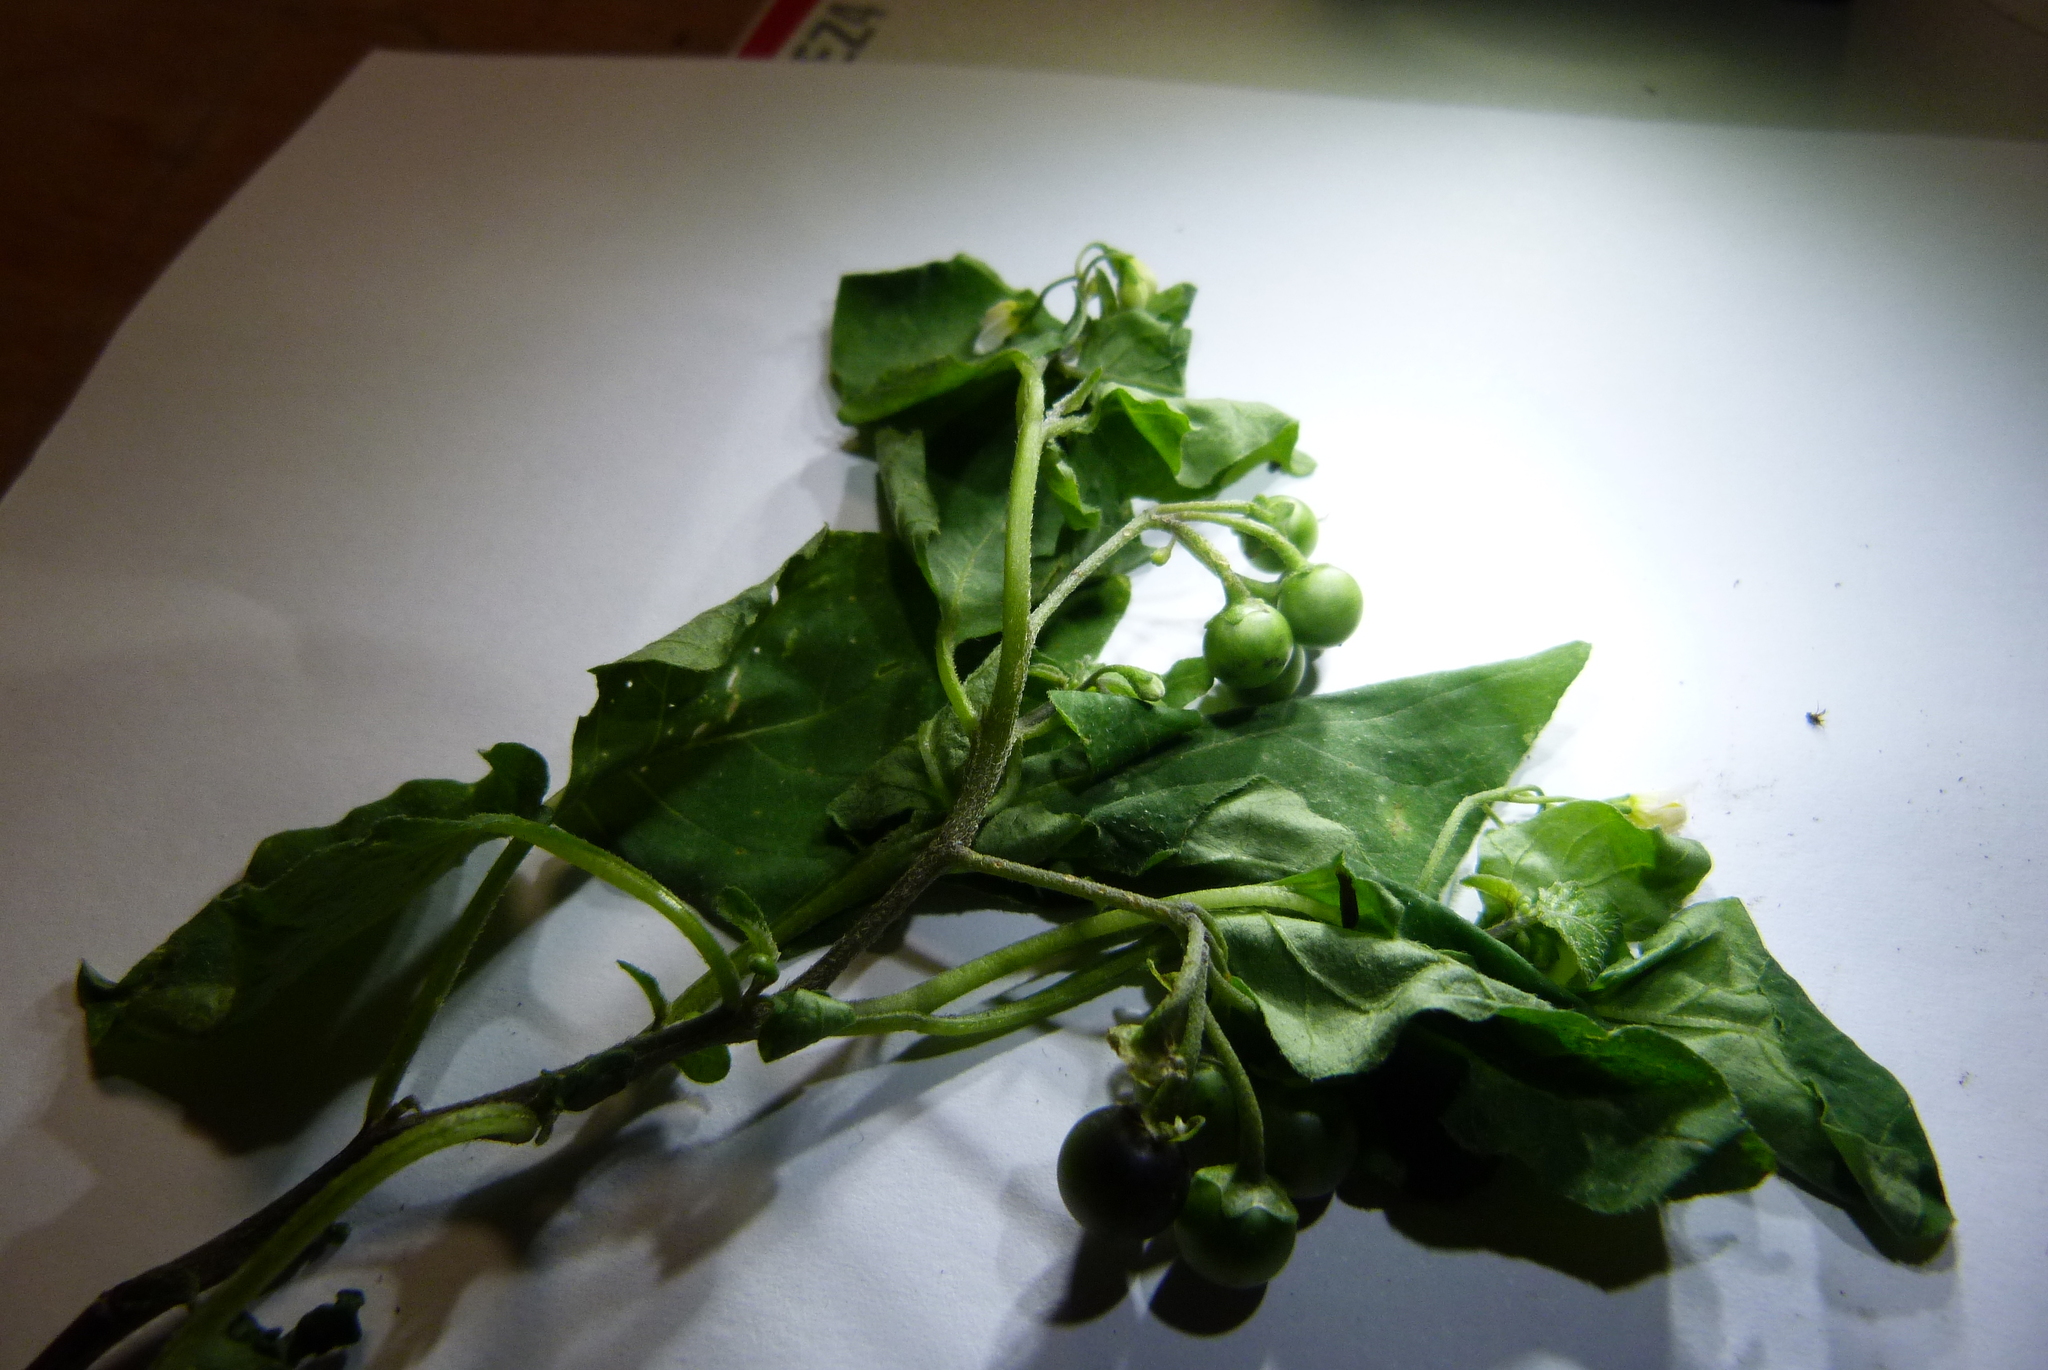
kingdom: Plantae
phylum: Tracheophyta
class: Magnoliopsida
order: Solanales
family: Solanaceae
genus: Solanum
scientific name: Solanum nigrum
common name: Black nightshade
